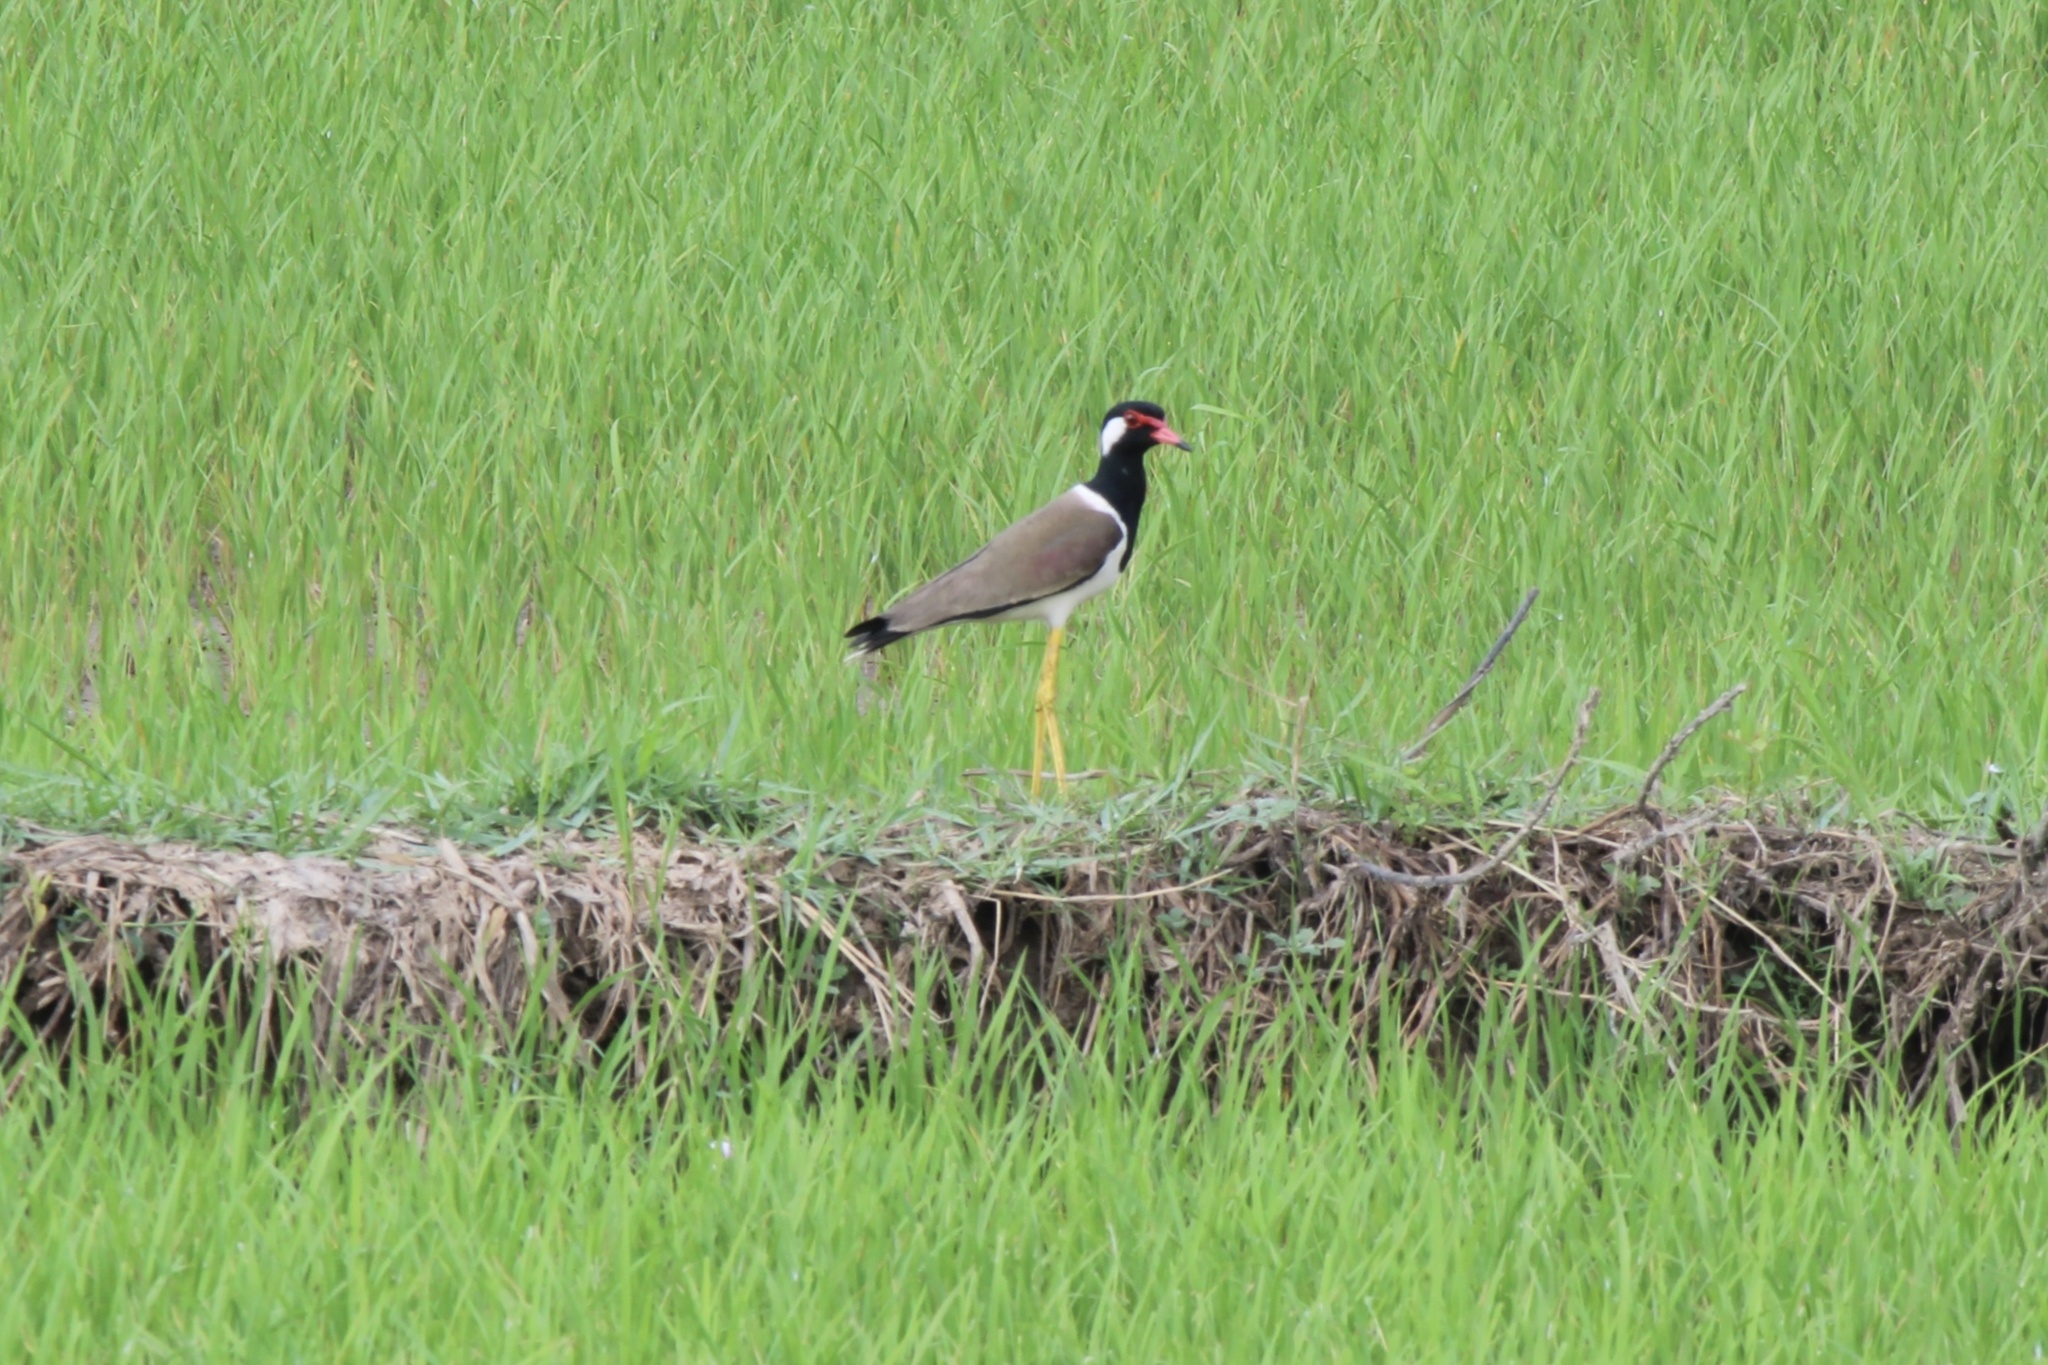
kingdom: Animalia
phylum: Chordata
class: Aves
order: Charadriiformes
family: Charadriidae
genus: Vanellus
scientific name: Vanellus indicus
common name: Red-wattled lapwing
